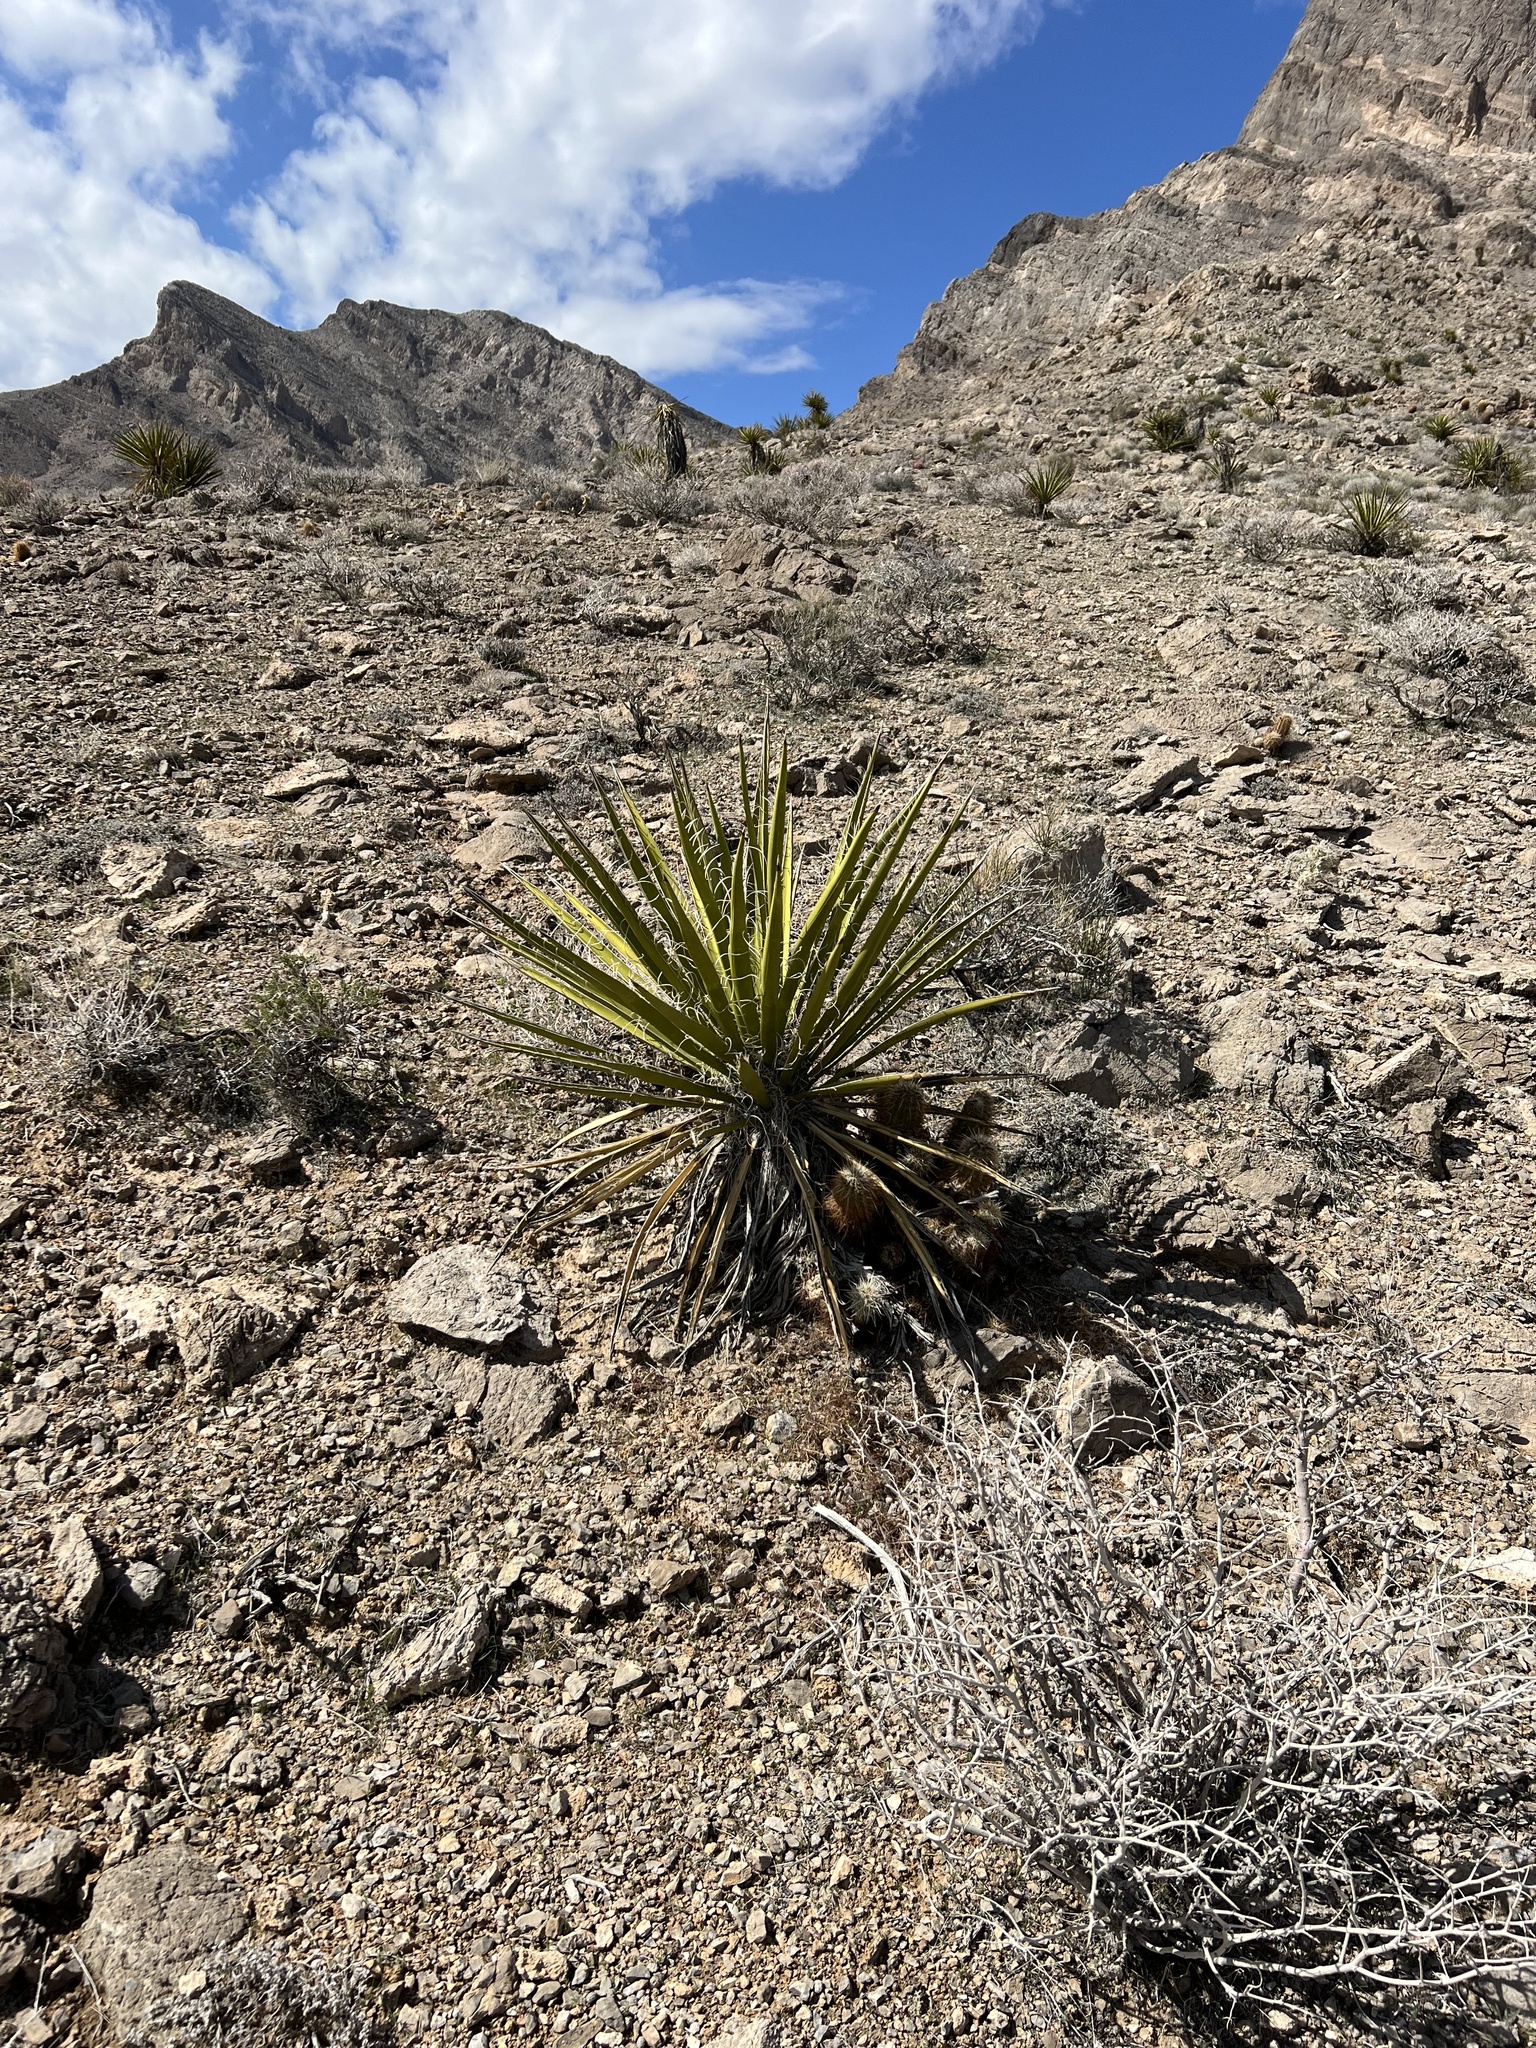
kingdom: Plantae
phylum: Tracheophyta
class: Liliopsida
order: Asparagales
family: Asparagaceae
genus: Yucca
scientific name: Yucca schidigera
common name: Mojave yucca
